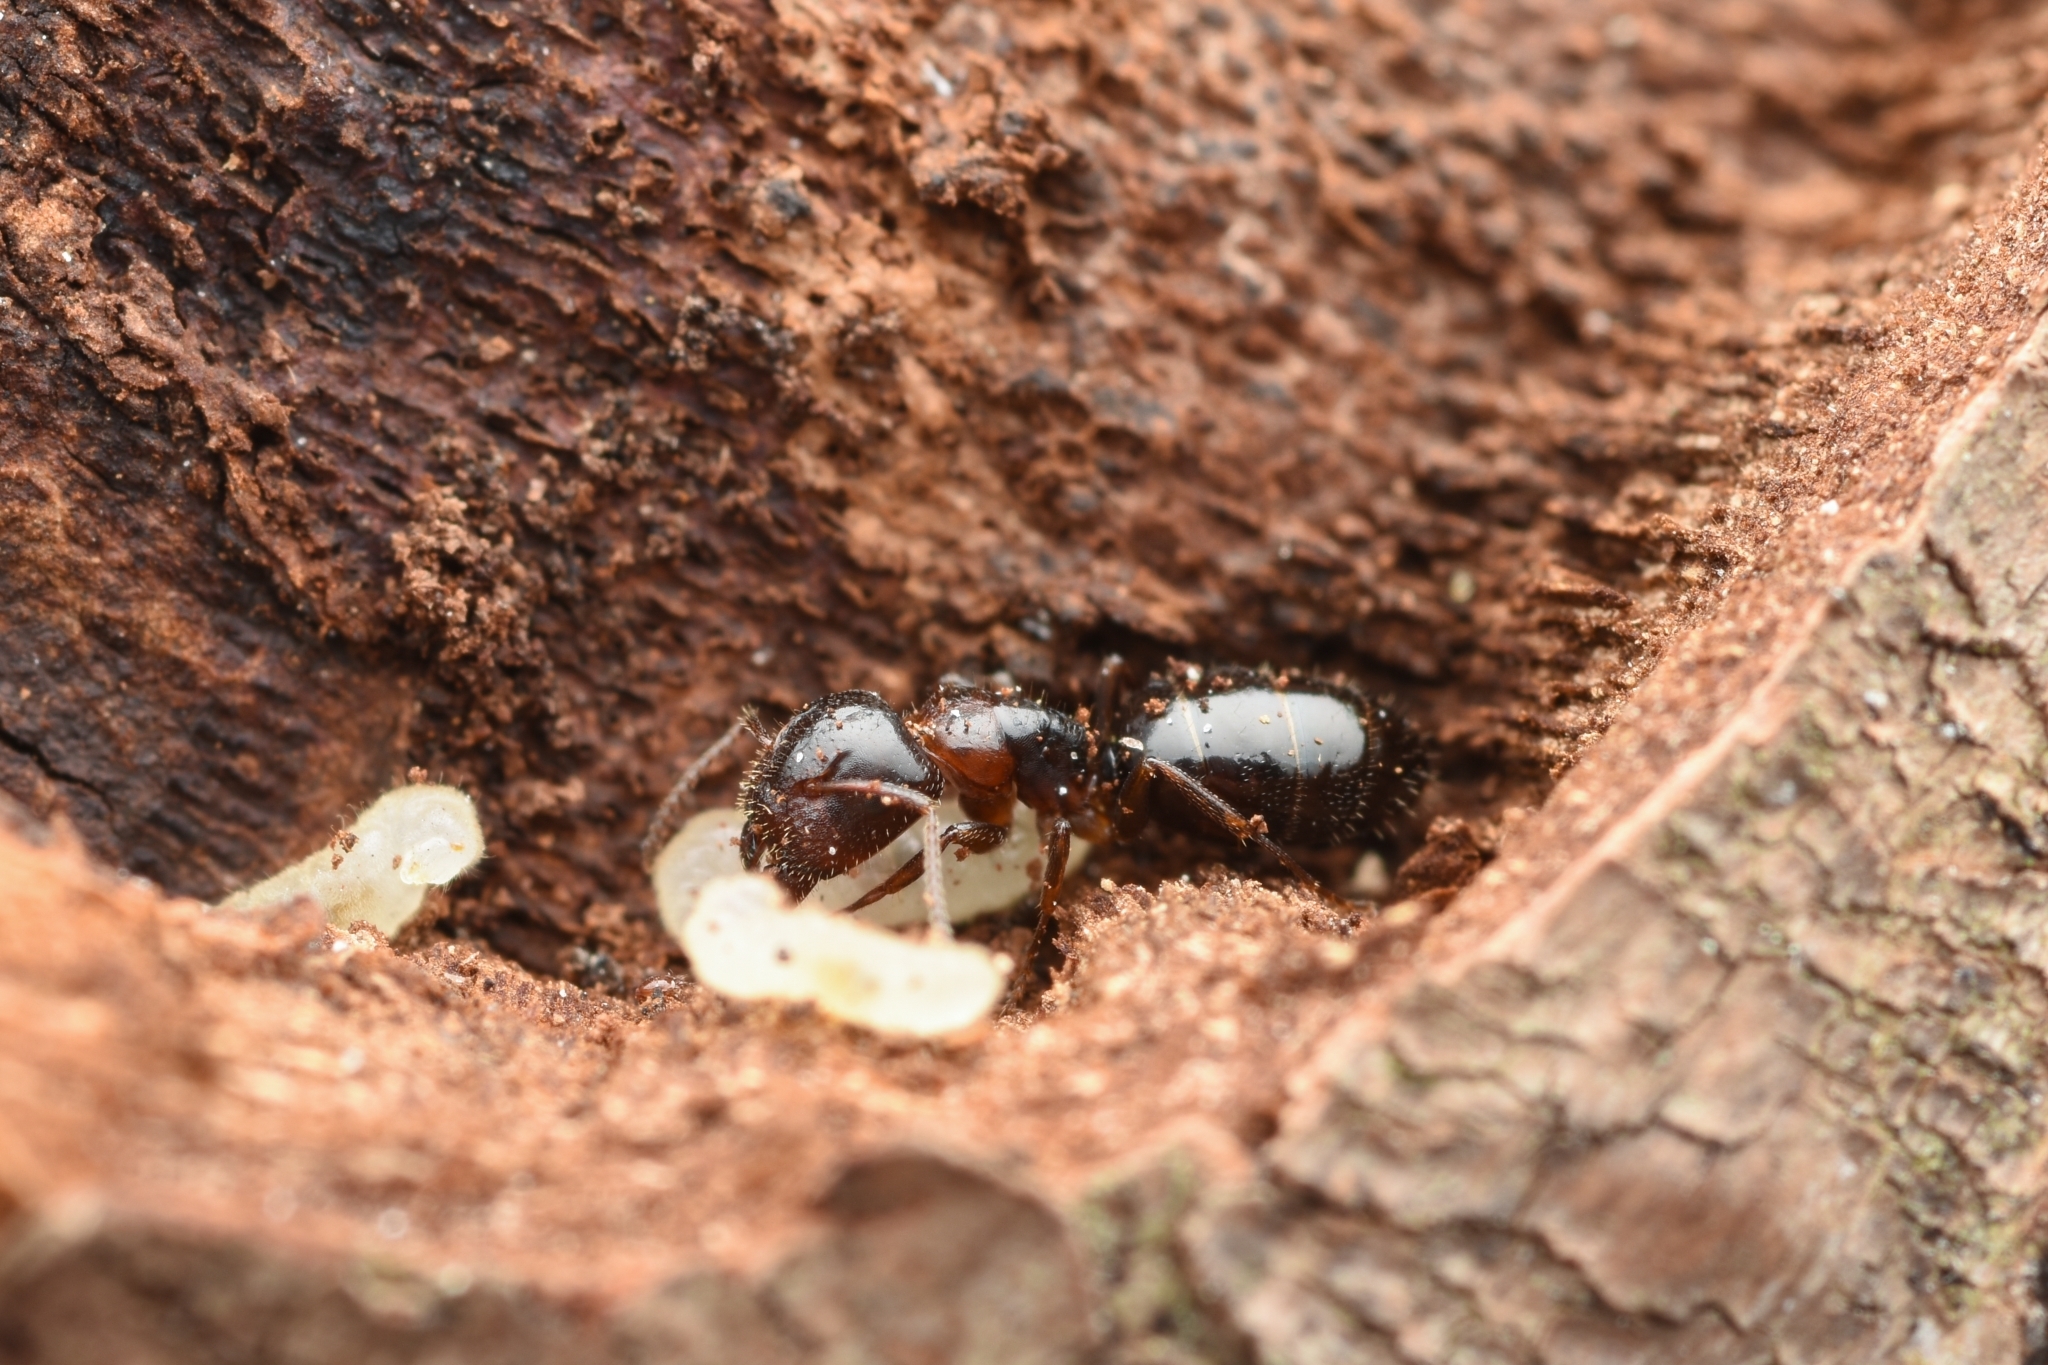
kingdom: Animalia
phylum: Arthropoda
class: Insecta
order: Hymenoptera
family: Formicidae
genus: Camponotus
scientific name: Camponotus itoi
